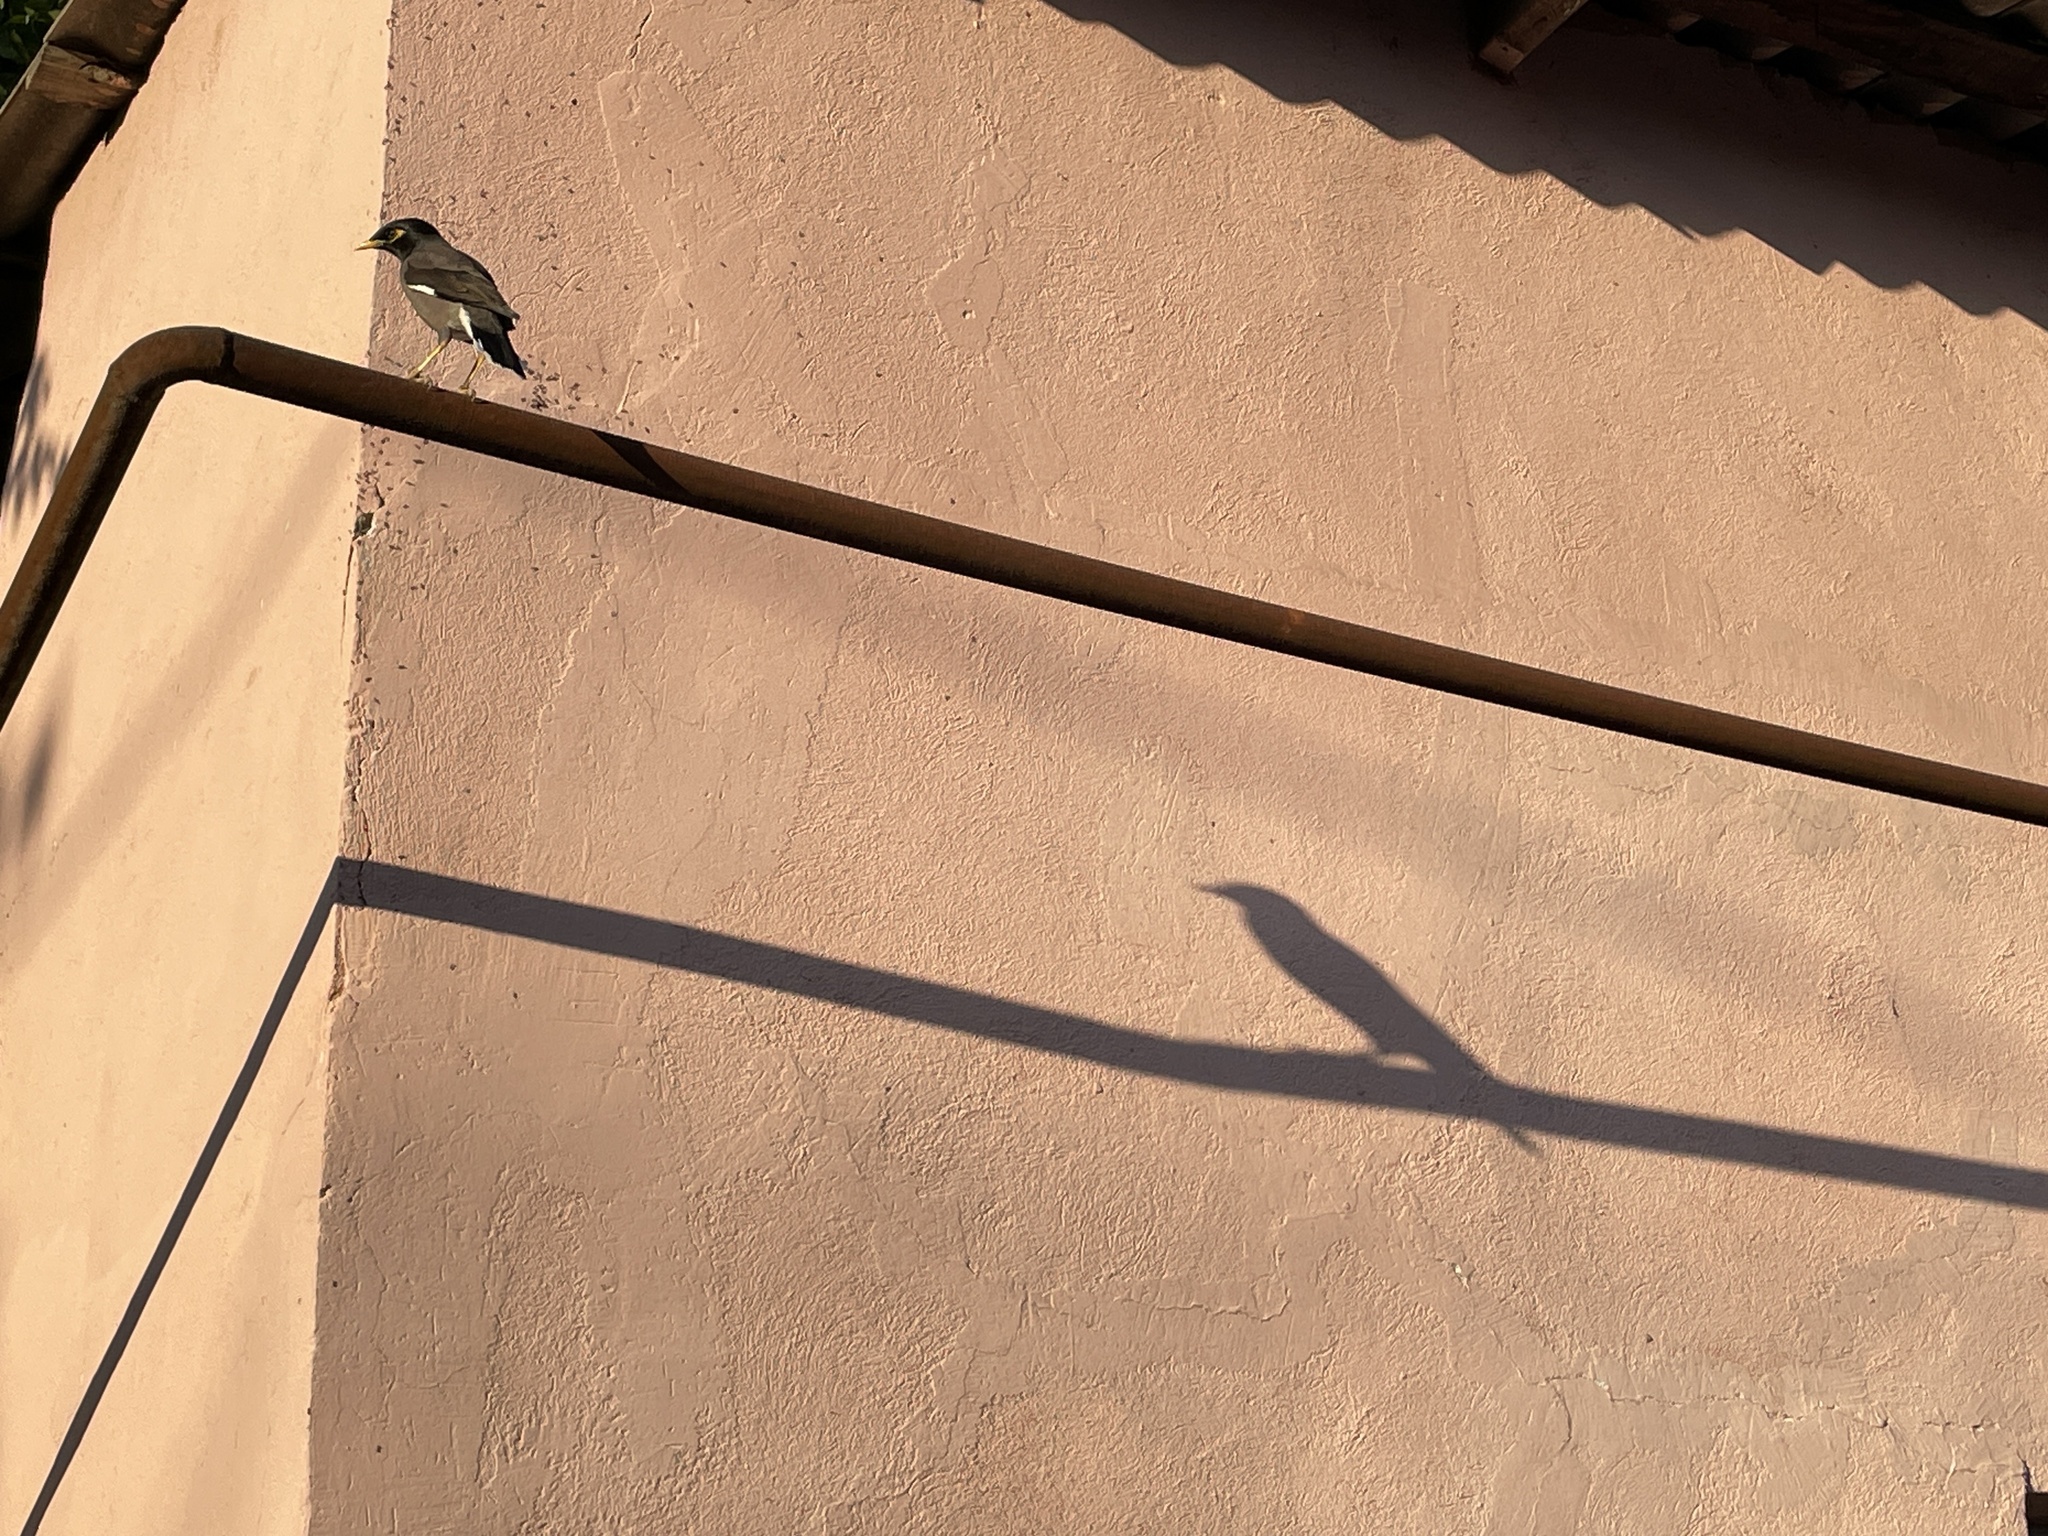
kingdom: Animalia
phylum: Chordata
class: Aves
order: Passeriformes
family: Sturnidae
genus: Acridotheres
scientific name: Acridotheres tristis
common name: Common myna
